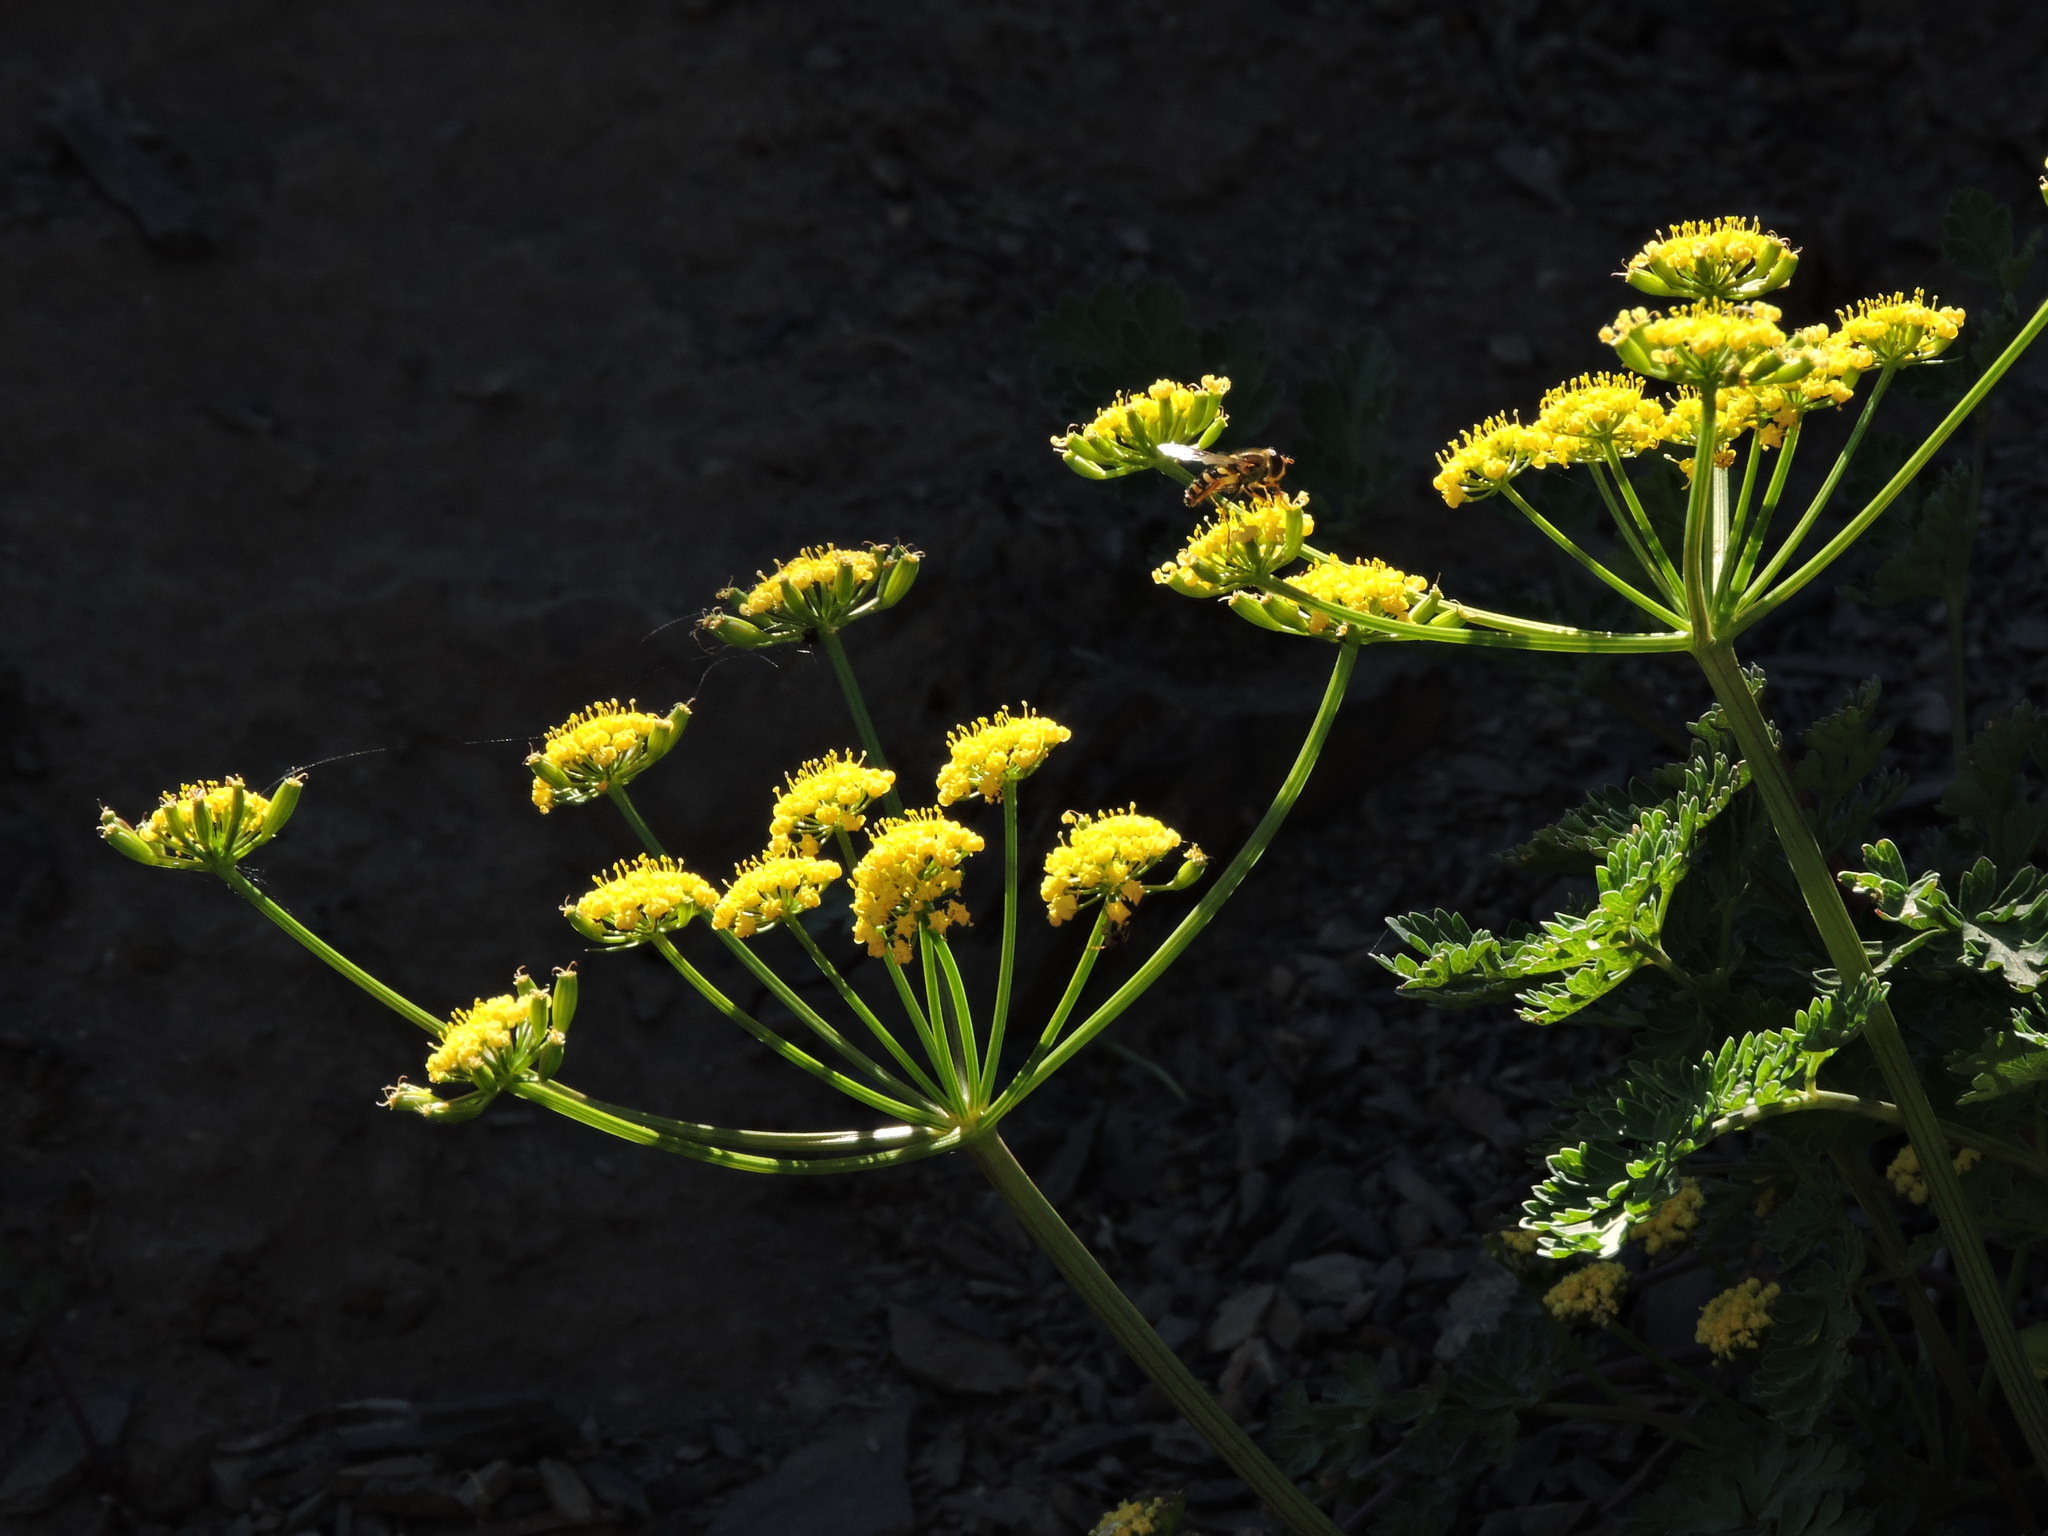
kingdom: Plantae
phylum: Tracheophyta
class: Magnoliopsida
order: Apiales
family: Apiaceae
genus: Lomatium
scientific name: Lomatium martindalei
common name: Cascade desert-parsley
